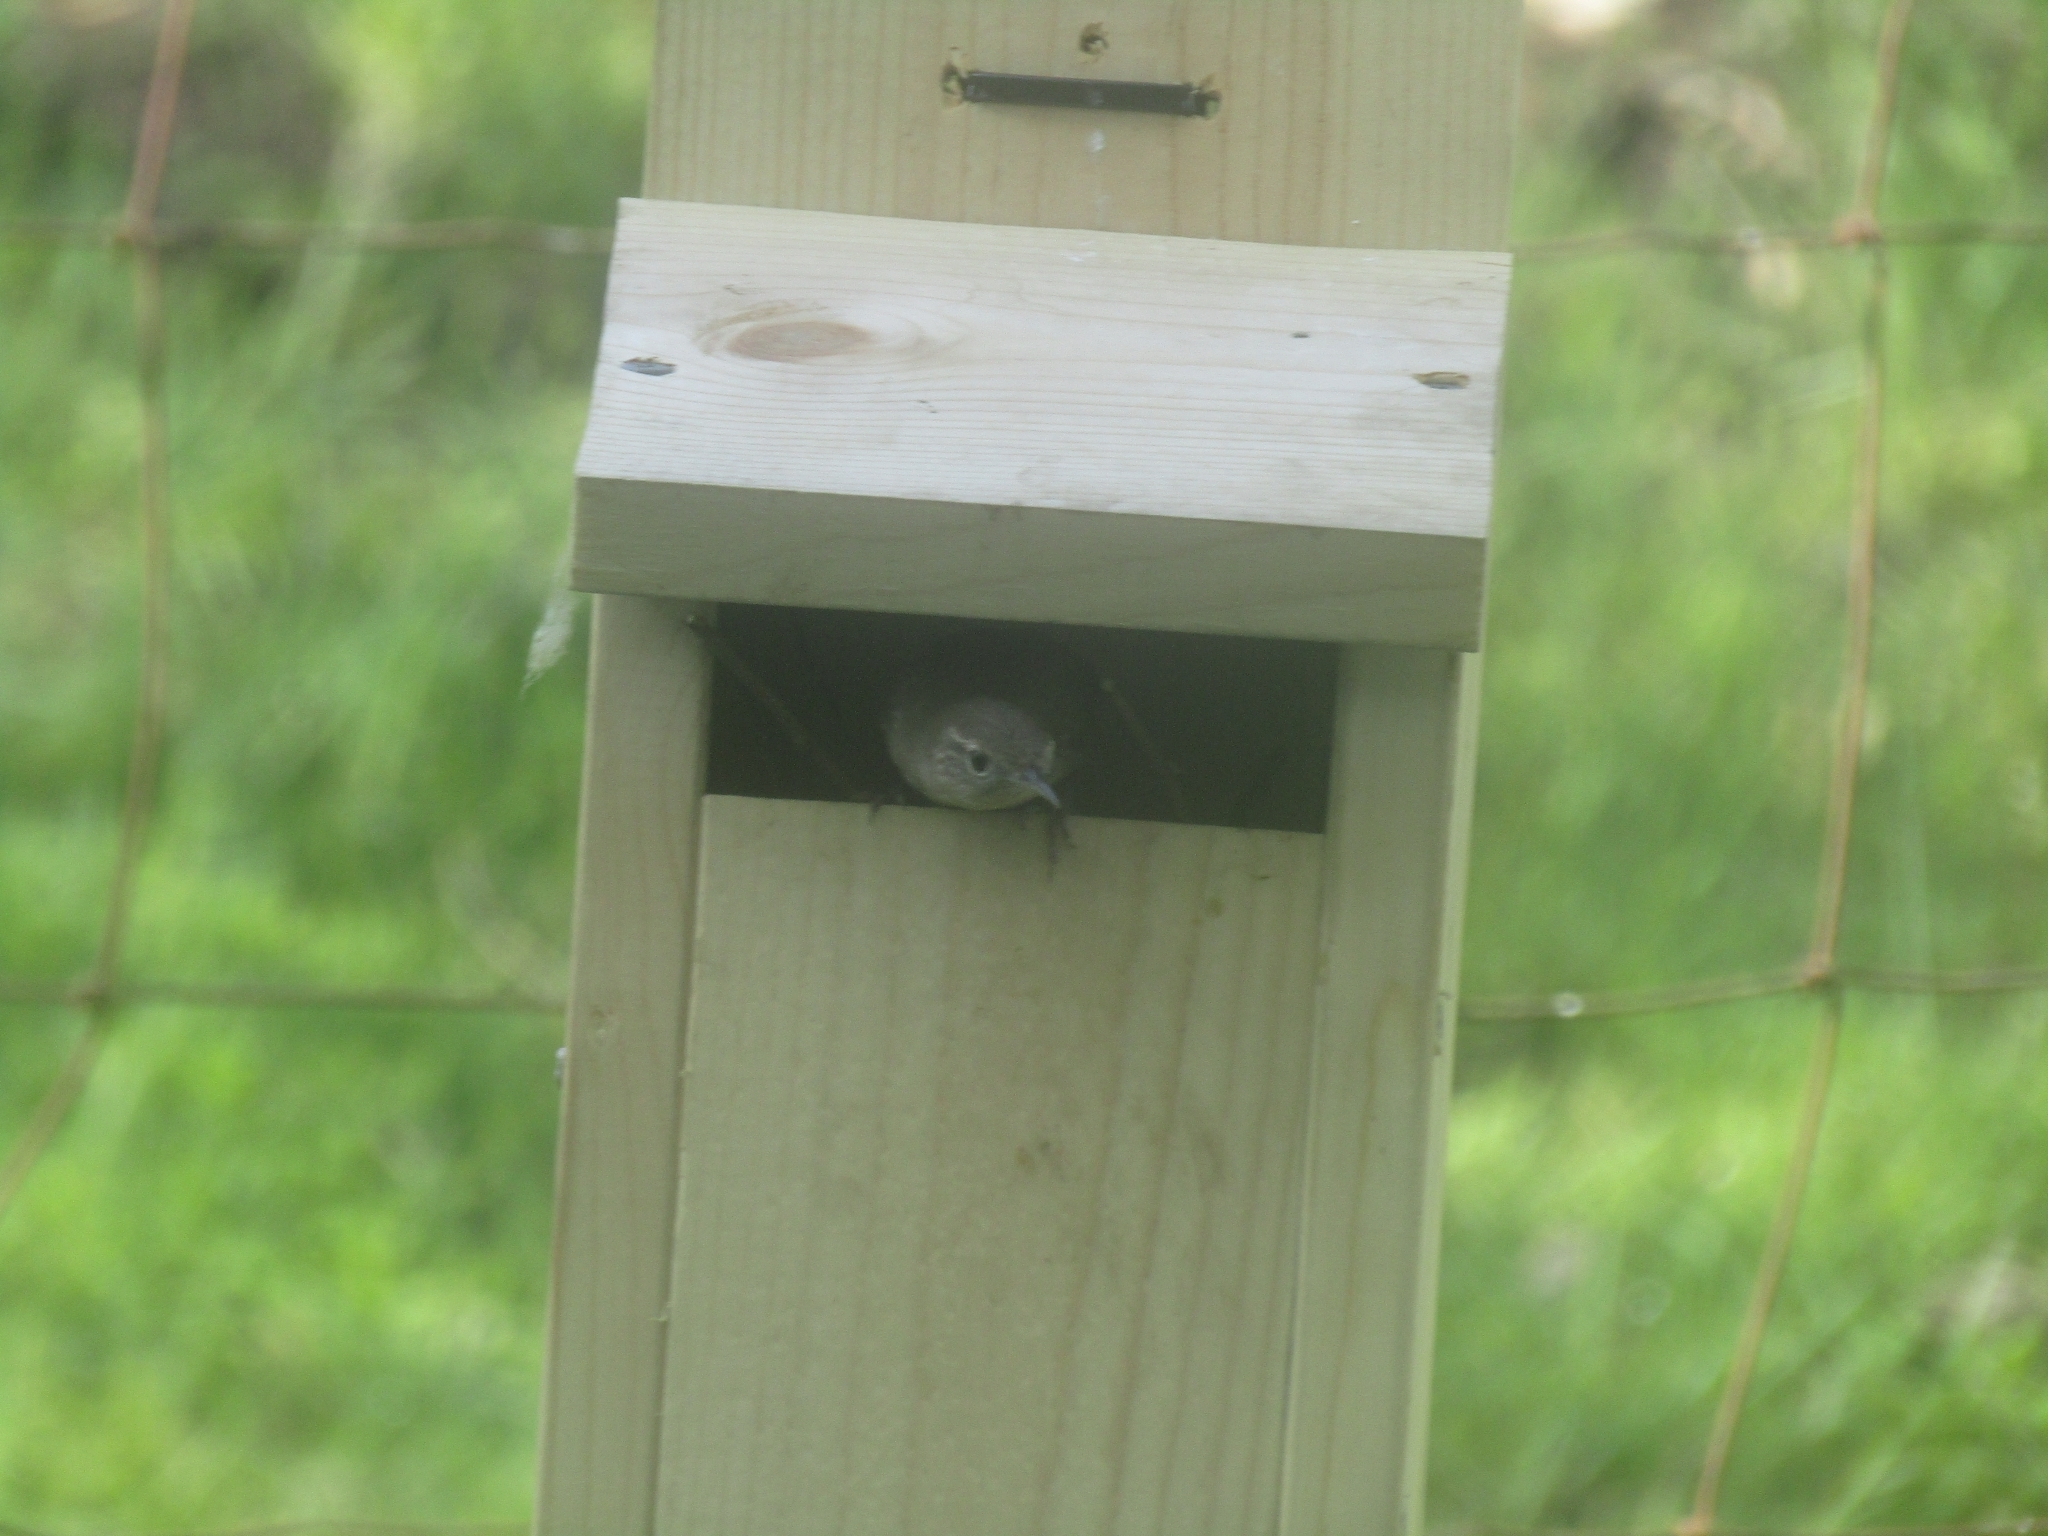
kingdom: Animalia
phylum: Chordata
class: Aves
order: Passeriformes
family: Troglodytidae
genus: Troglodytes
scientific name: Troglodytes aedon
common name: House wren
